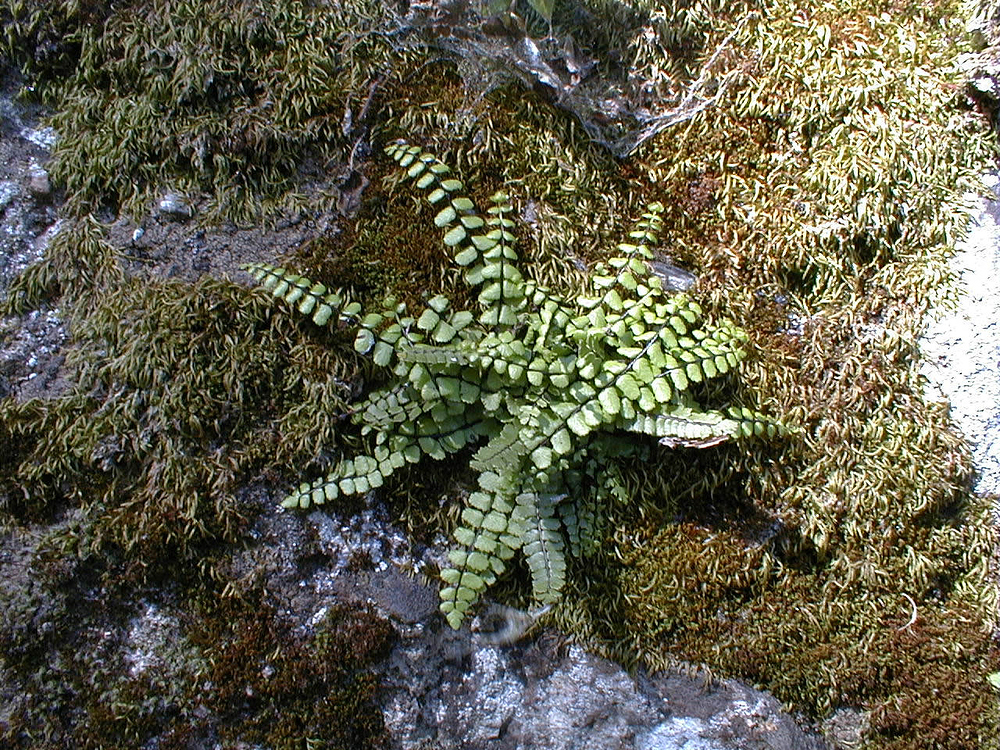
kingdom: Plantae
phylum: Tracheophyta
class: Polypodiopsida
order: Polypodiales
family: Aspleniaceae
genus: Asplenium
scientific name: Asplenium trichomanes
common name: Maidenhair spleenwort
